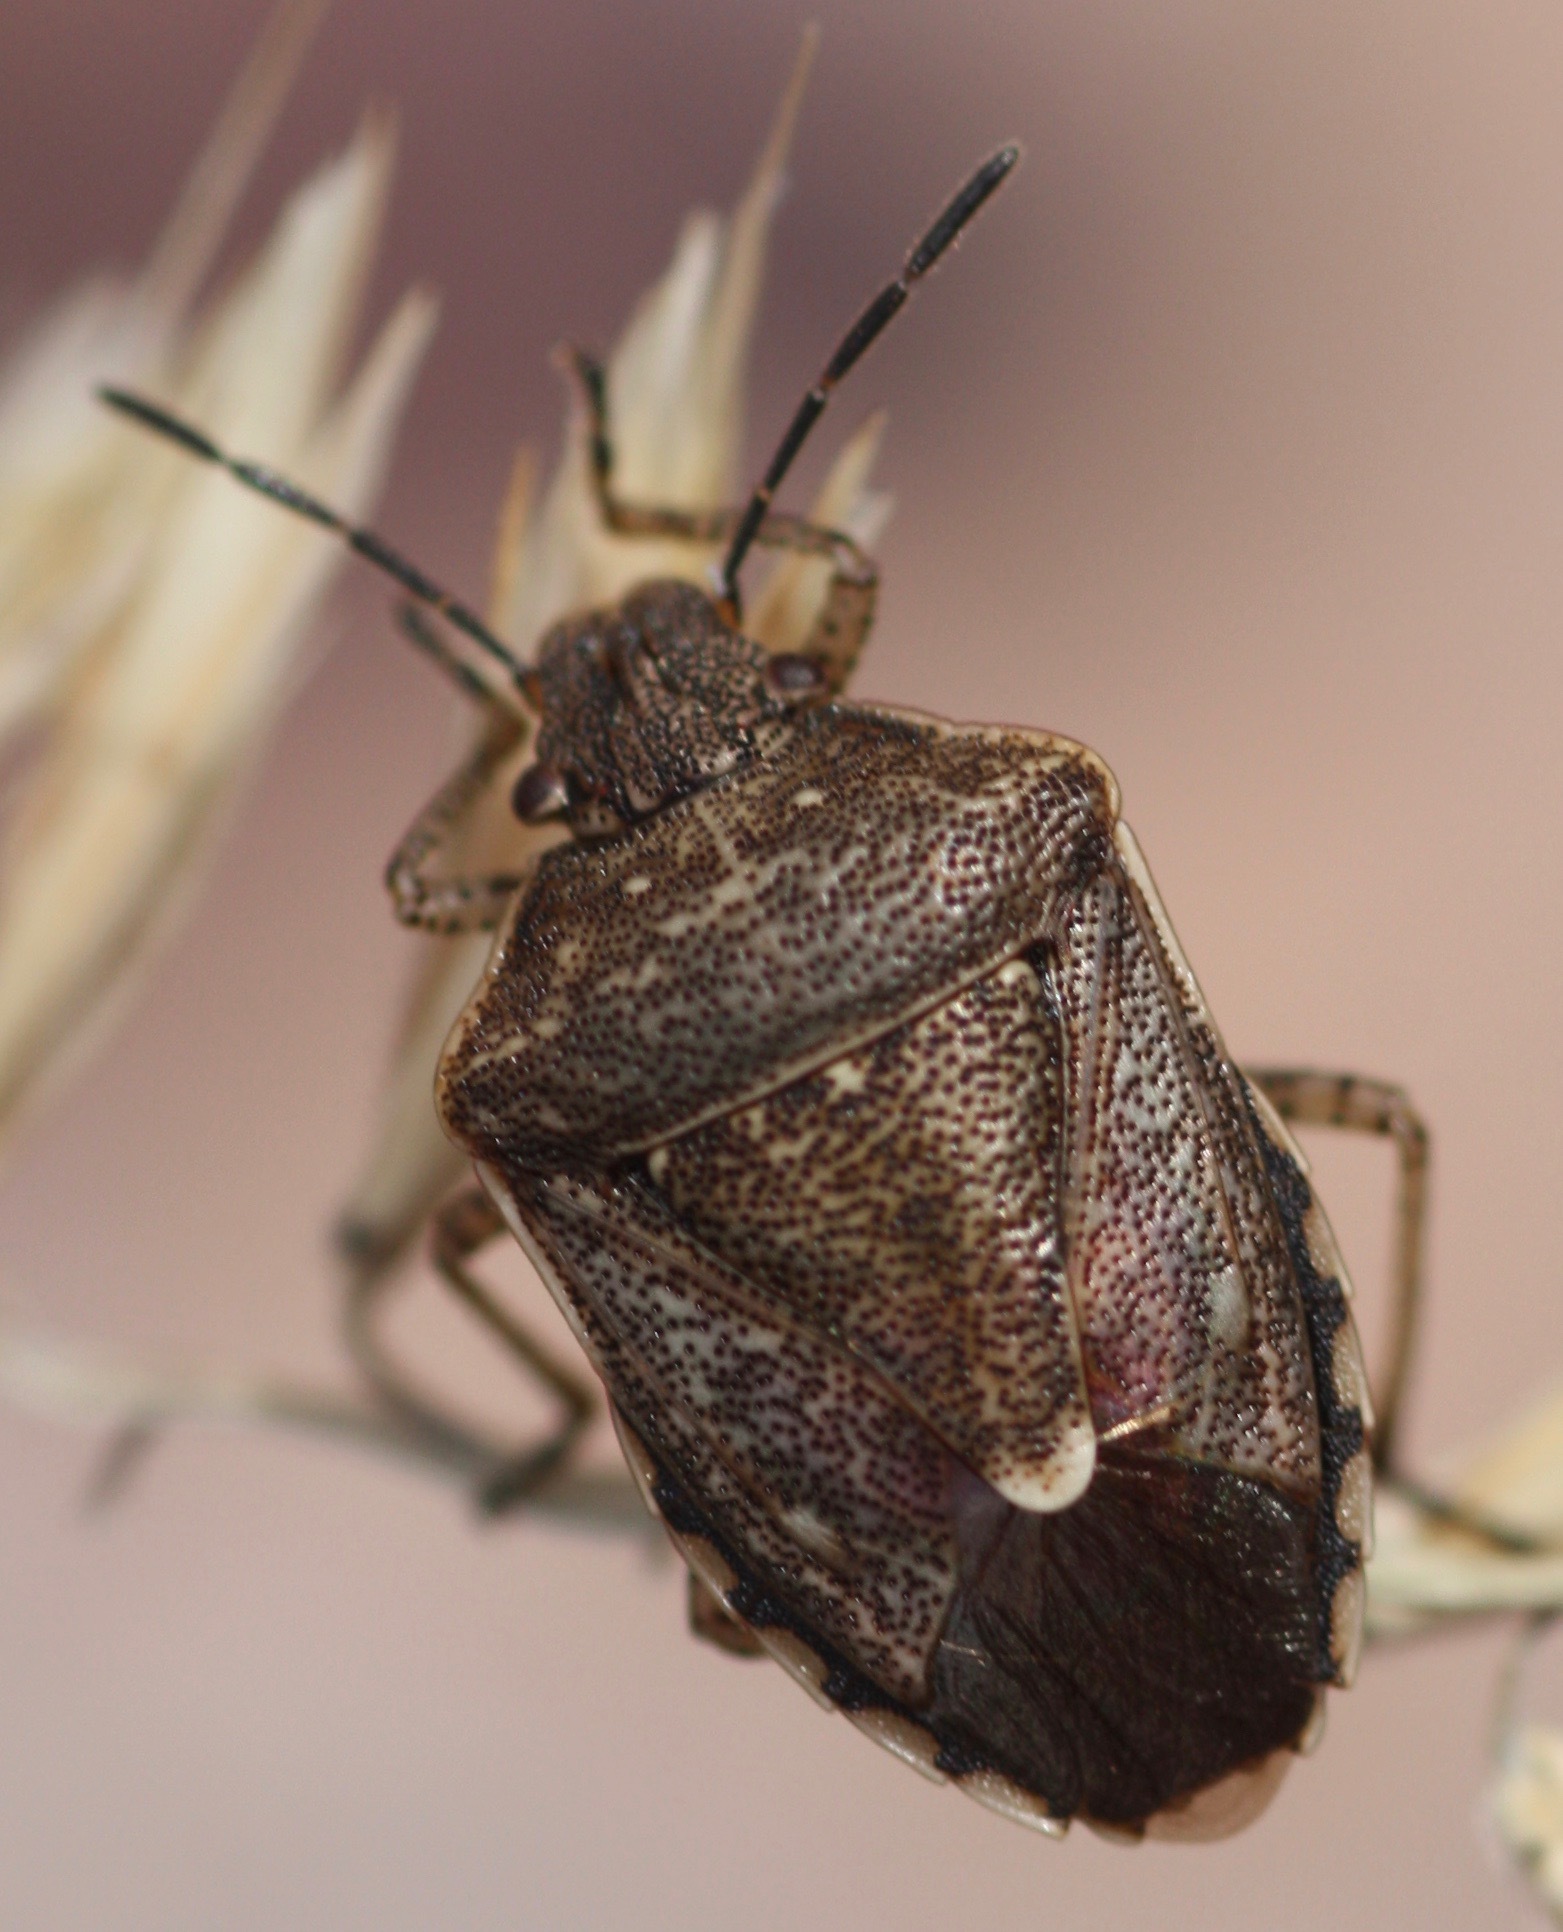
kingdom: Animalia
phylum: Arthropoda
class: Insecta
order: Hemiptera
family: Pentatomidae
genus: Moromorpha
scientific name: Moromorpha tetra
